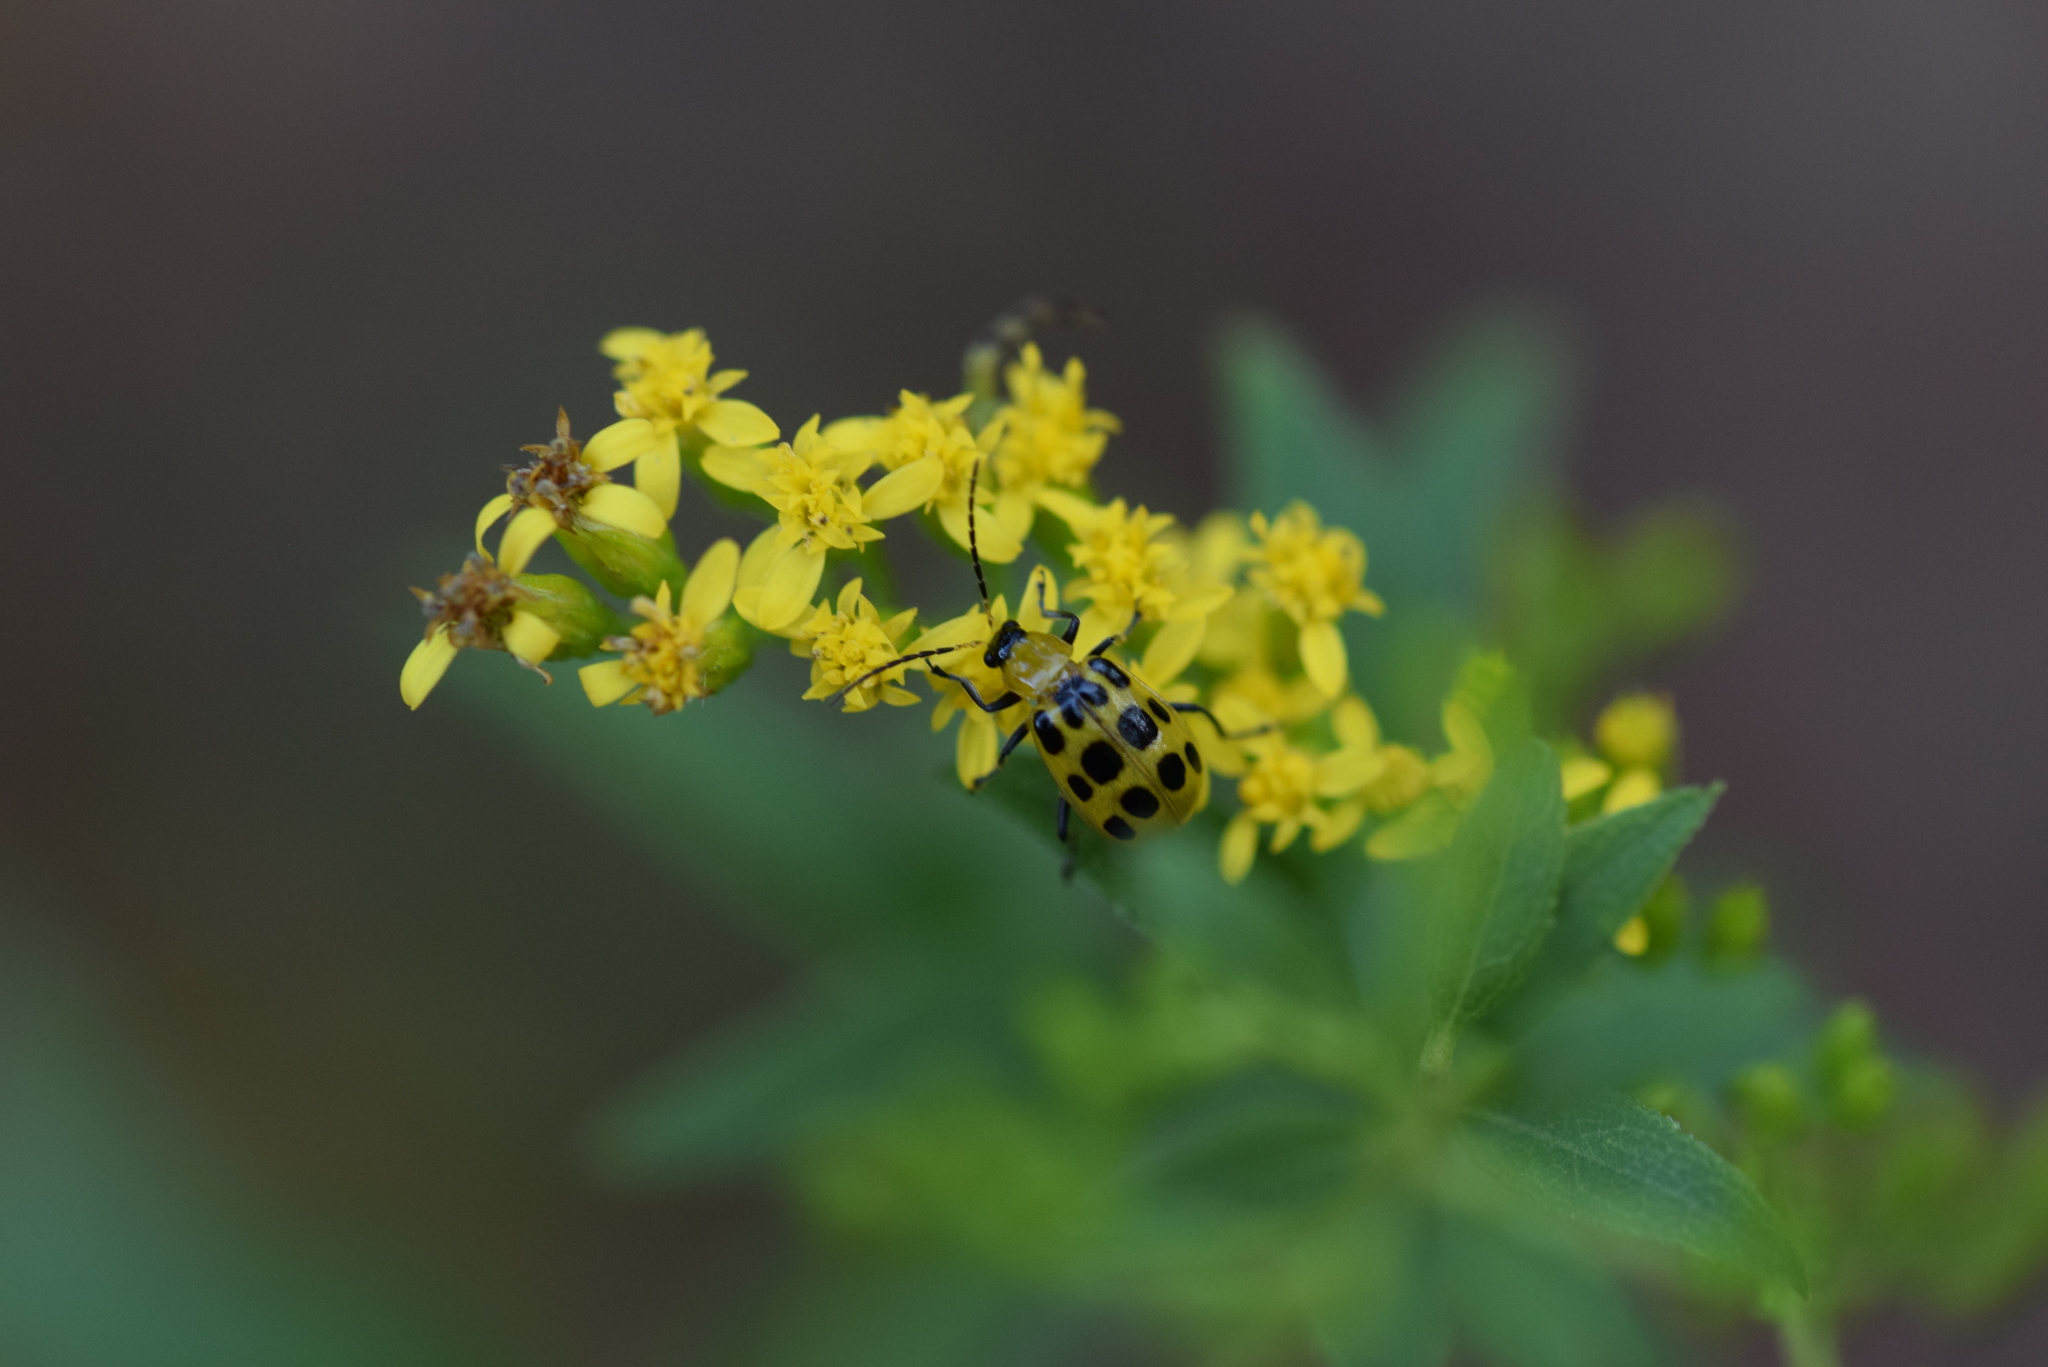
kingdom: Animalia
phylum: Arthropoda
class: Insecta
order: Coleoptera
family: Chrysomelidae
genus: Diabrotica
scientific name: Diabrotica undecimpunctata
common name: Spotted cucumber beetle
